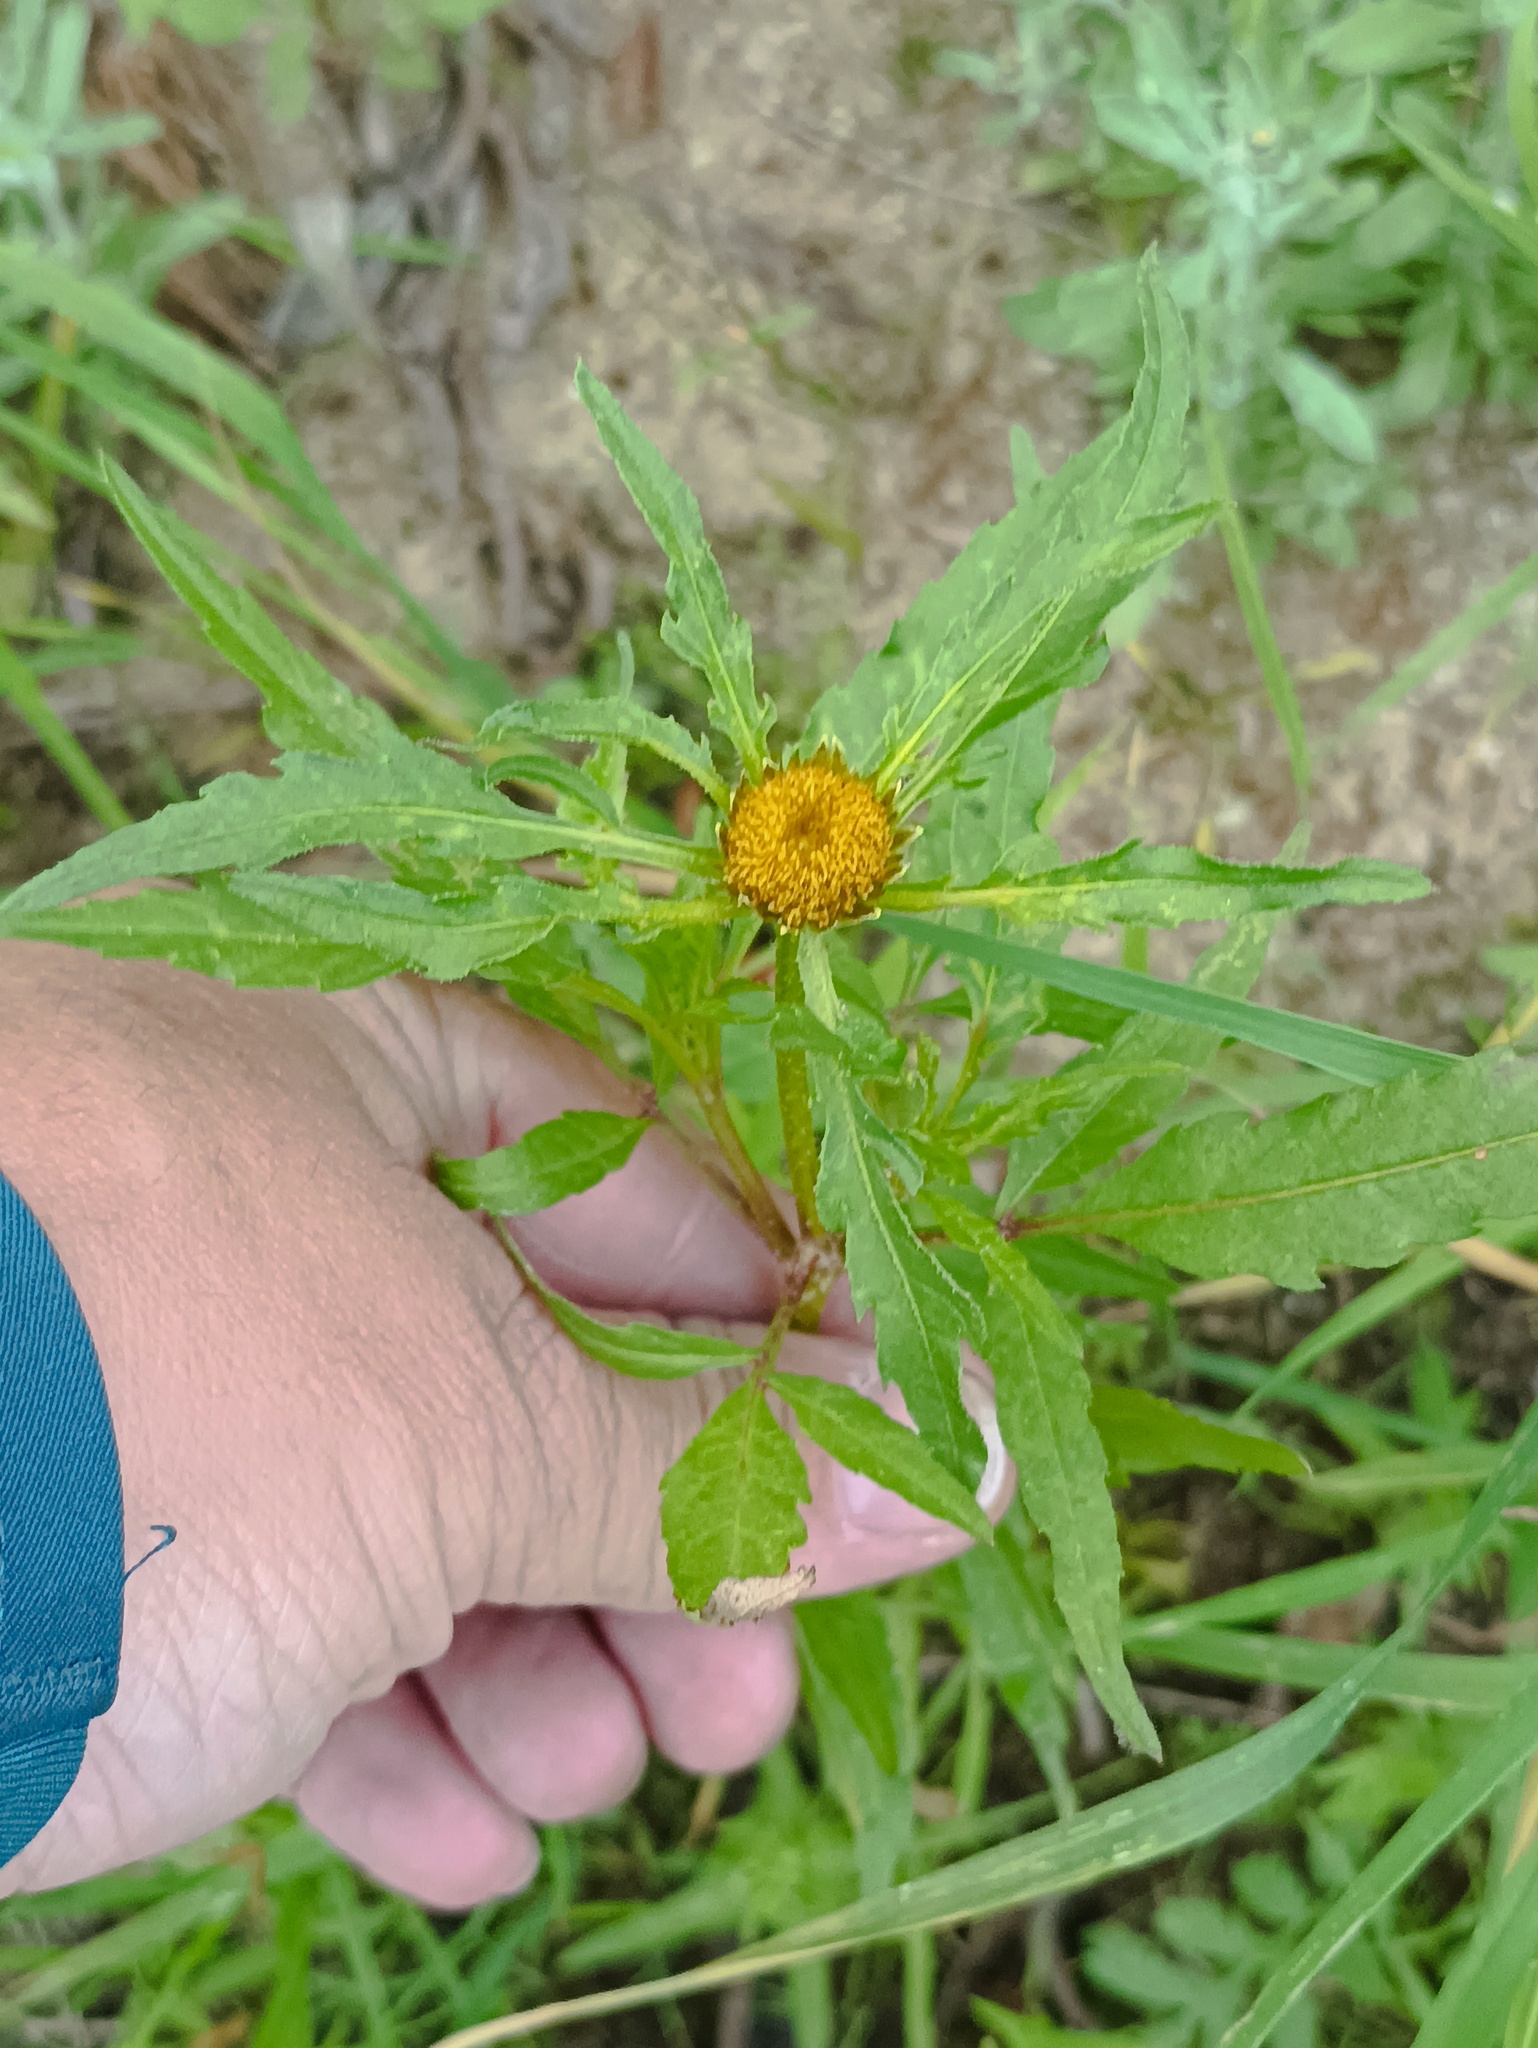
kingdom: Plantae
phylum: Tracheophyta
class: Magnoliopsida
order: Asterales
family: Asteraceae
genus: Bidens
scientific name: Bidens radiata
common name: Radiating bur-marigold
